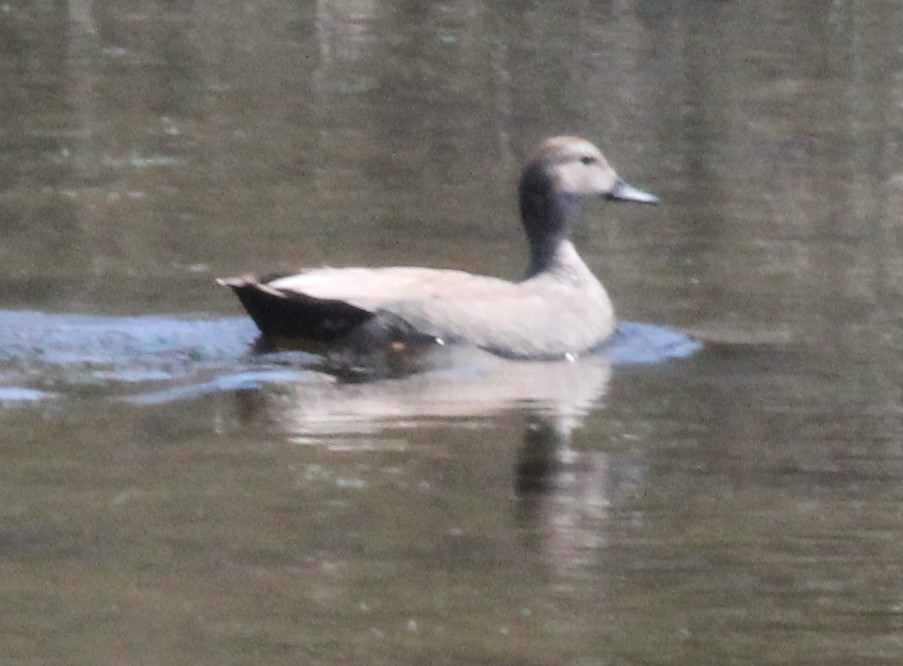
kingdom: Animalia
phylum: Chordata
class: Aves
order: Anseriformes
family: Anatidae
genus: Mareca
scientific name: Mareca strepera
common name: Gadwall
